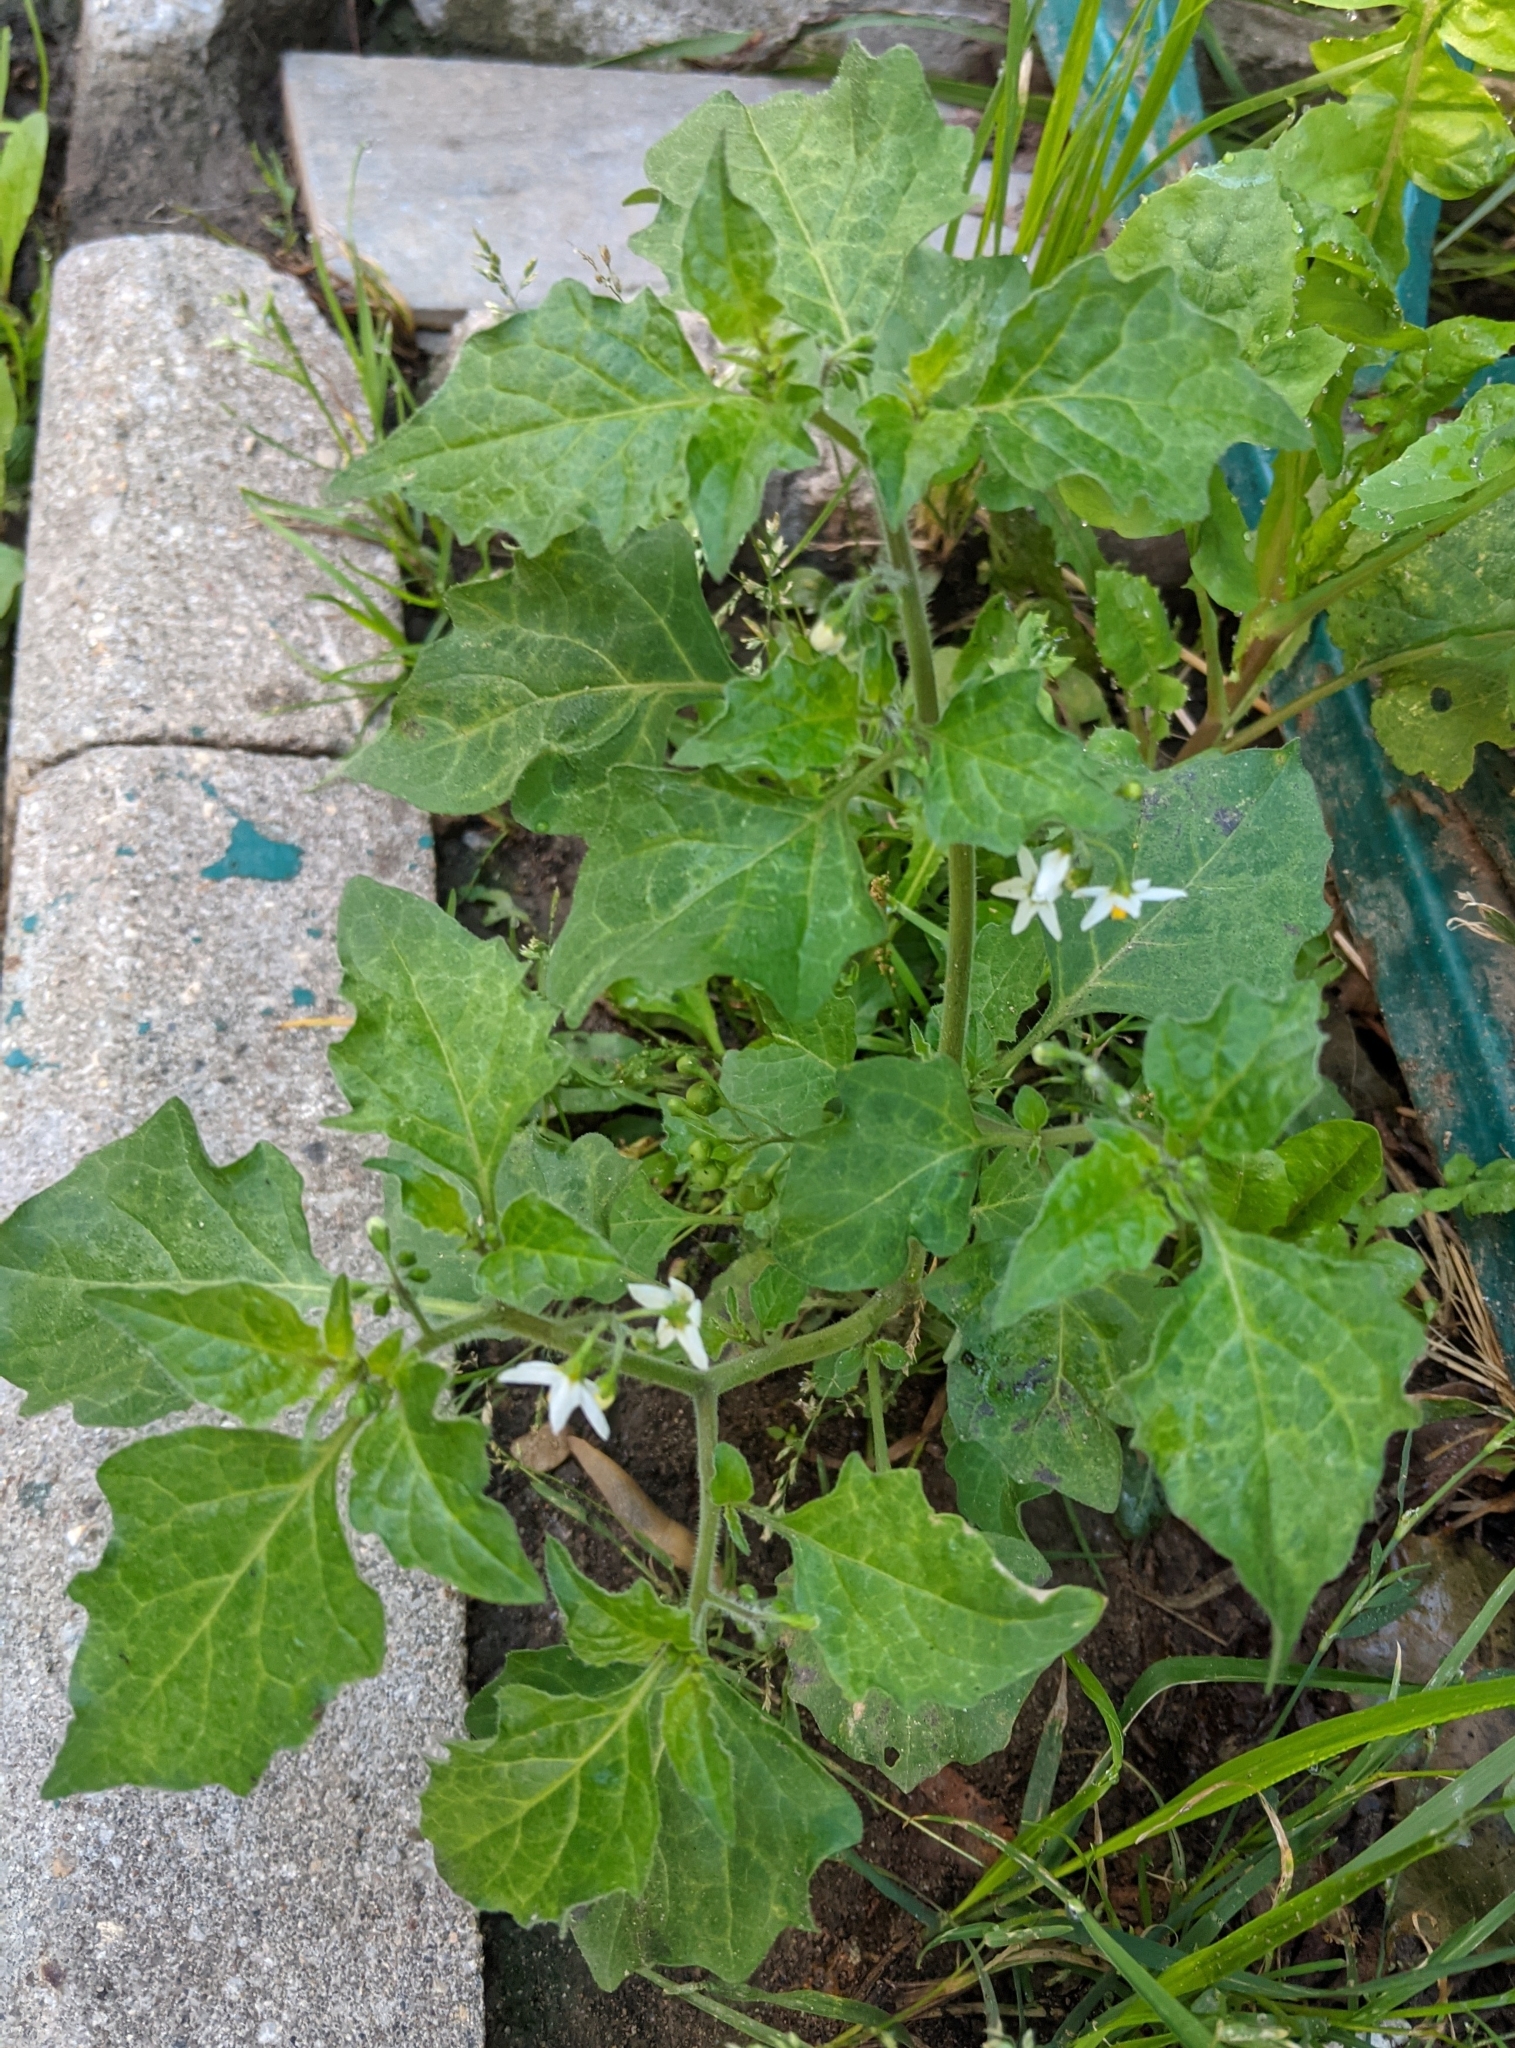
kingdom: Plantae
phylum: Tracheophyta
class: Magnoliopsida
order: Solanales
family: Solanaceae
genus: Solanum
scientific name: Solanum nigrum
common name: Black nightshade
